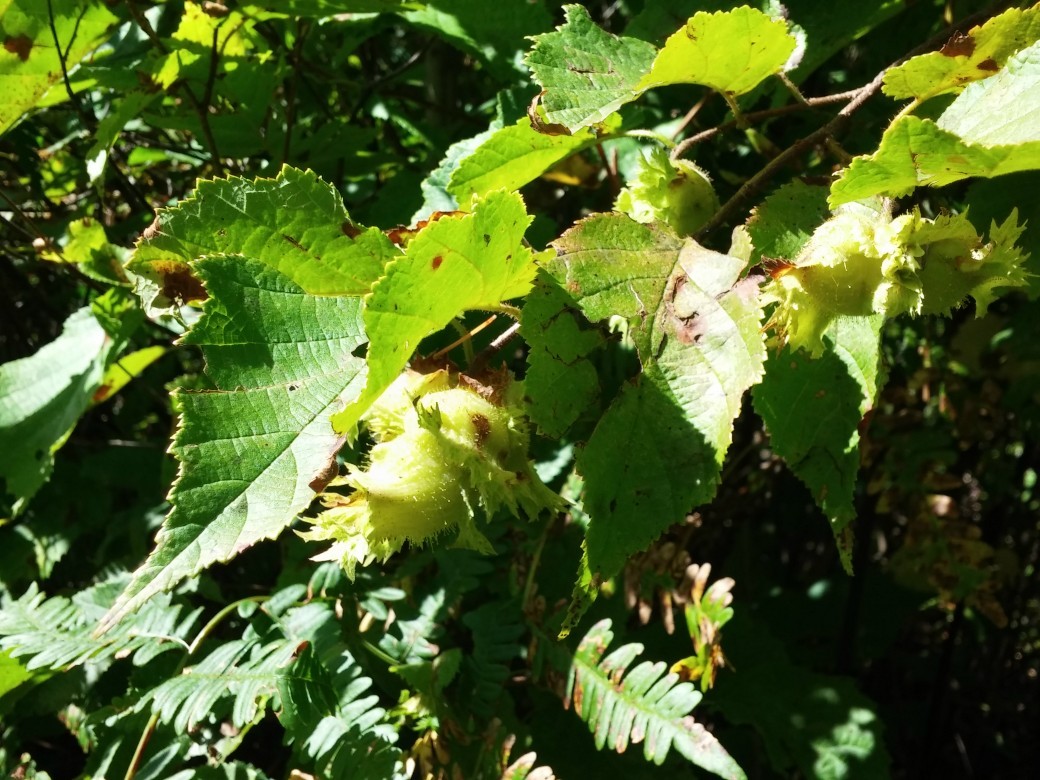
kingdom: Plantae
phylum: Tracheophyta
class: Magnoliopsida
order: Fagales
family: Betulaceae
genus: Corylus
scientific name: Corylus americana
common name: American hazel
